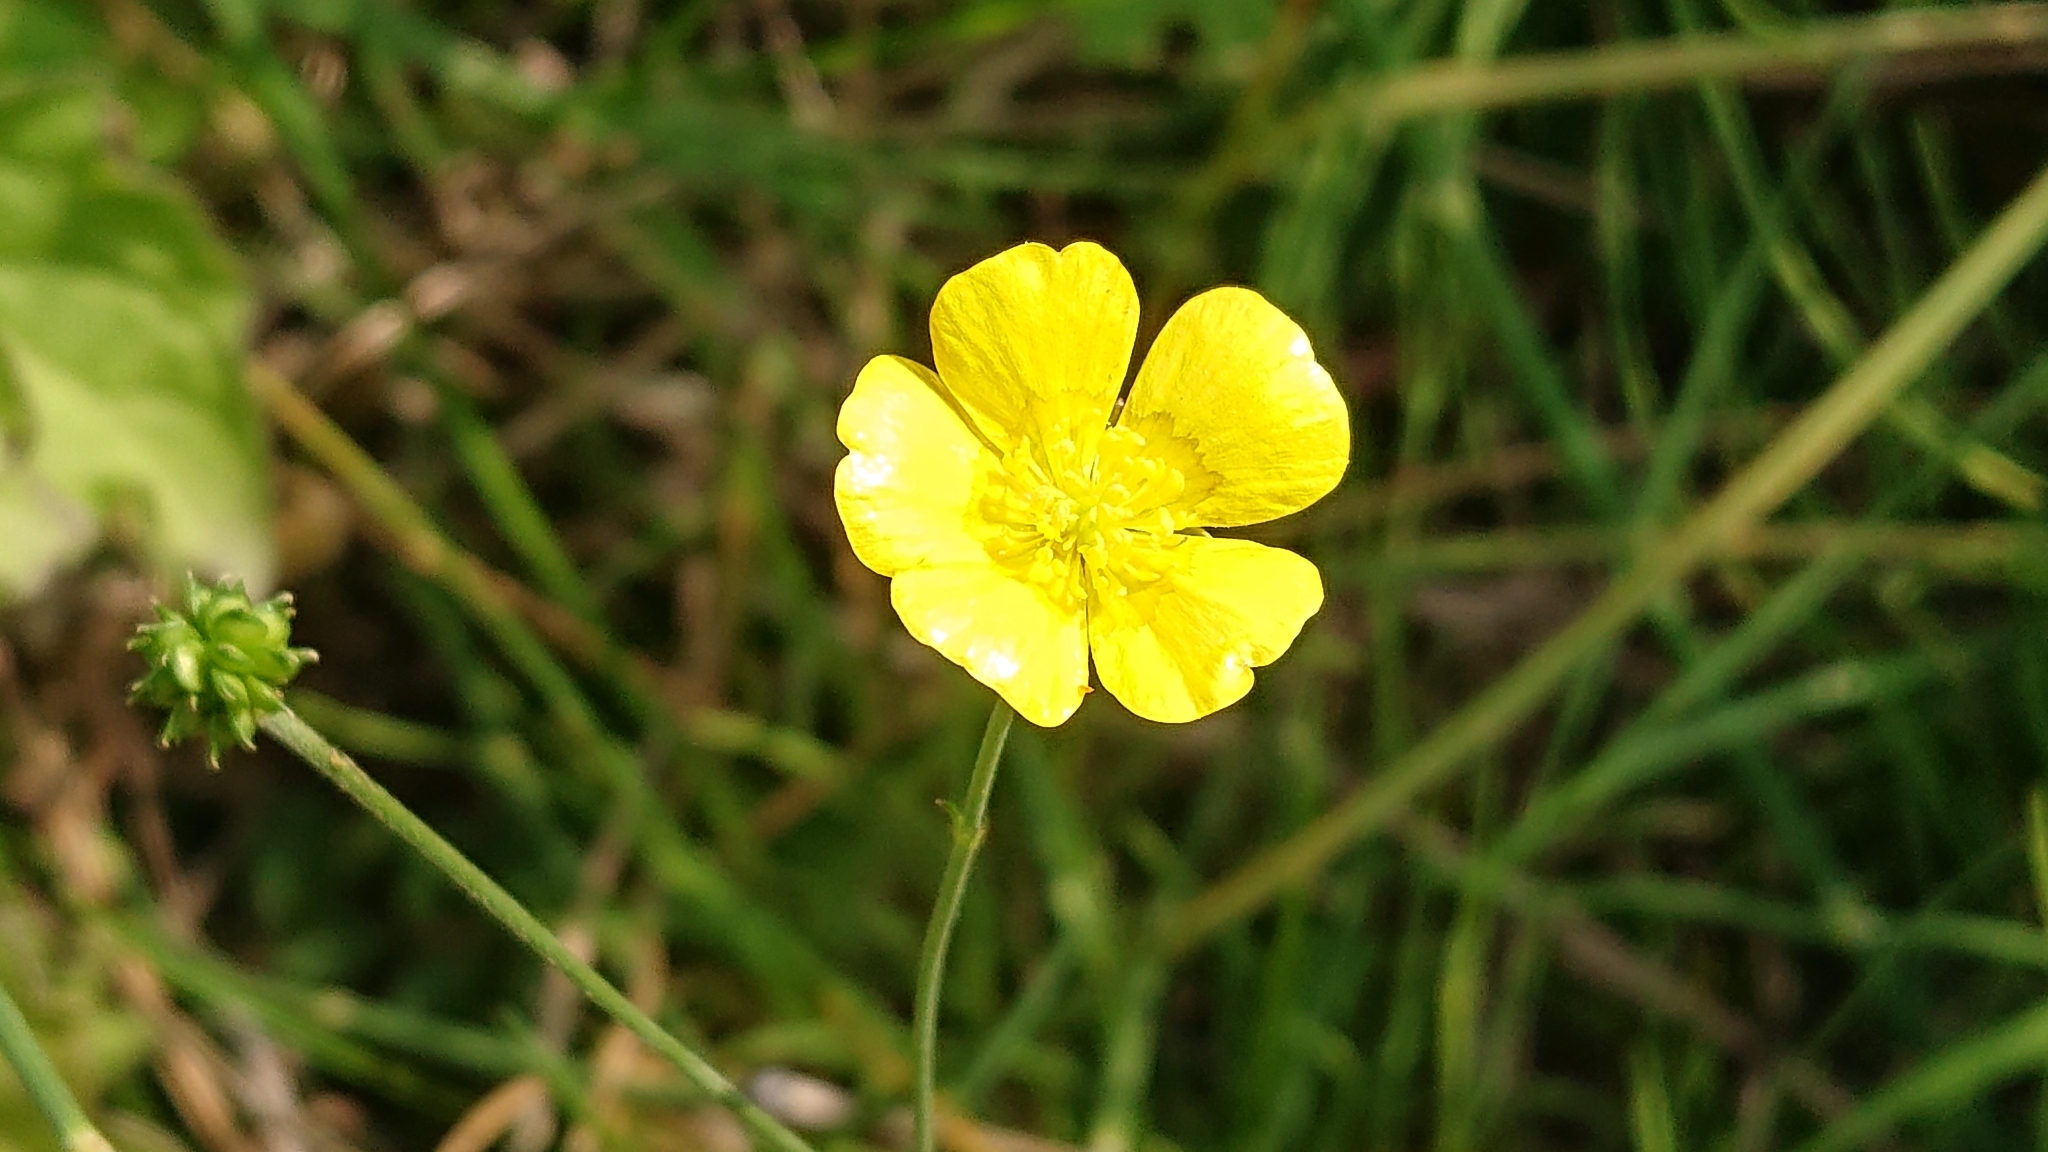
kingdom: Plantae
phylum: Tracheophyta
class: Magnoliopsida
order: Ranunculales
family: Ranunculaceae
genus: Ranunculus
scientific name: Ranunculus acris
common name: Meadow buttercup
